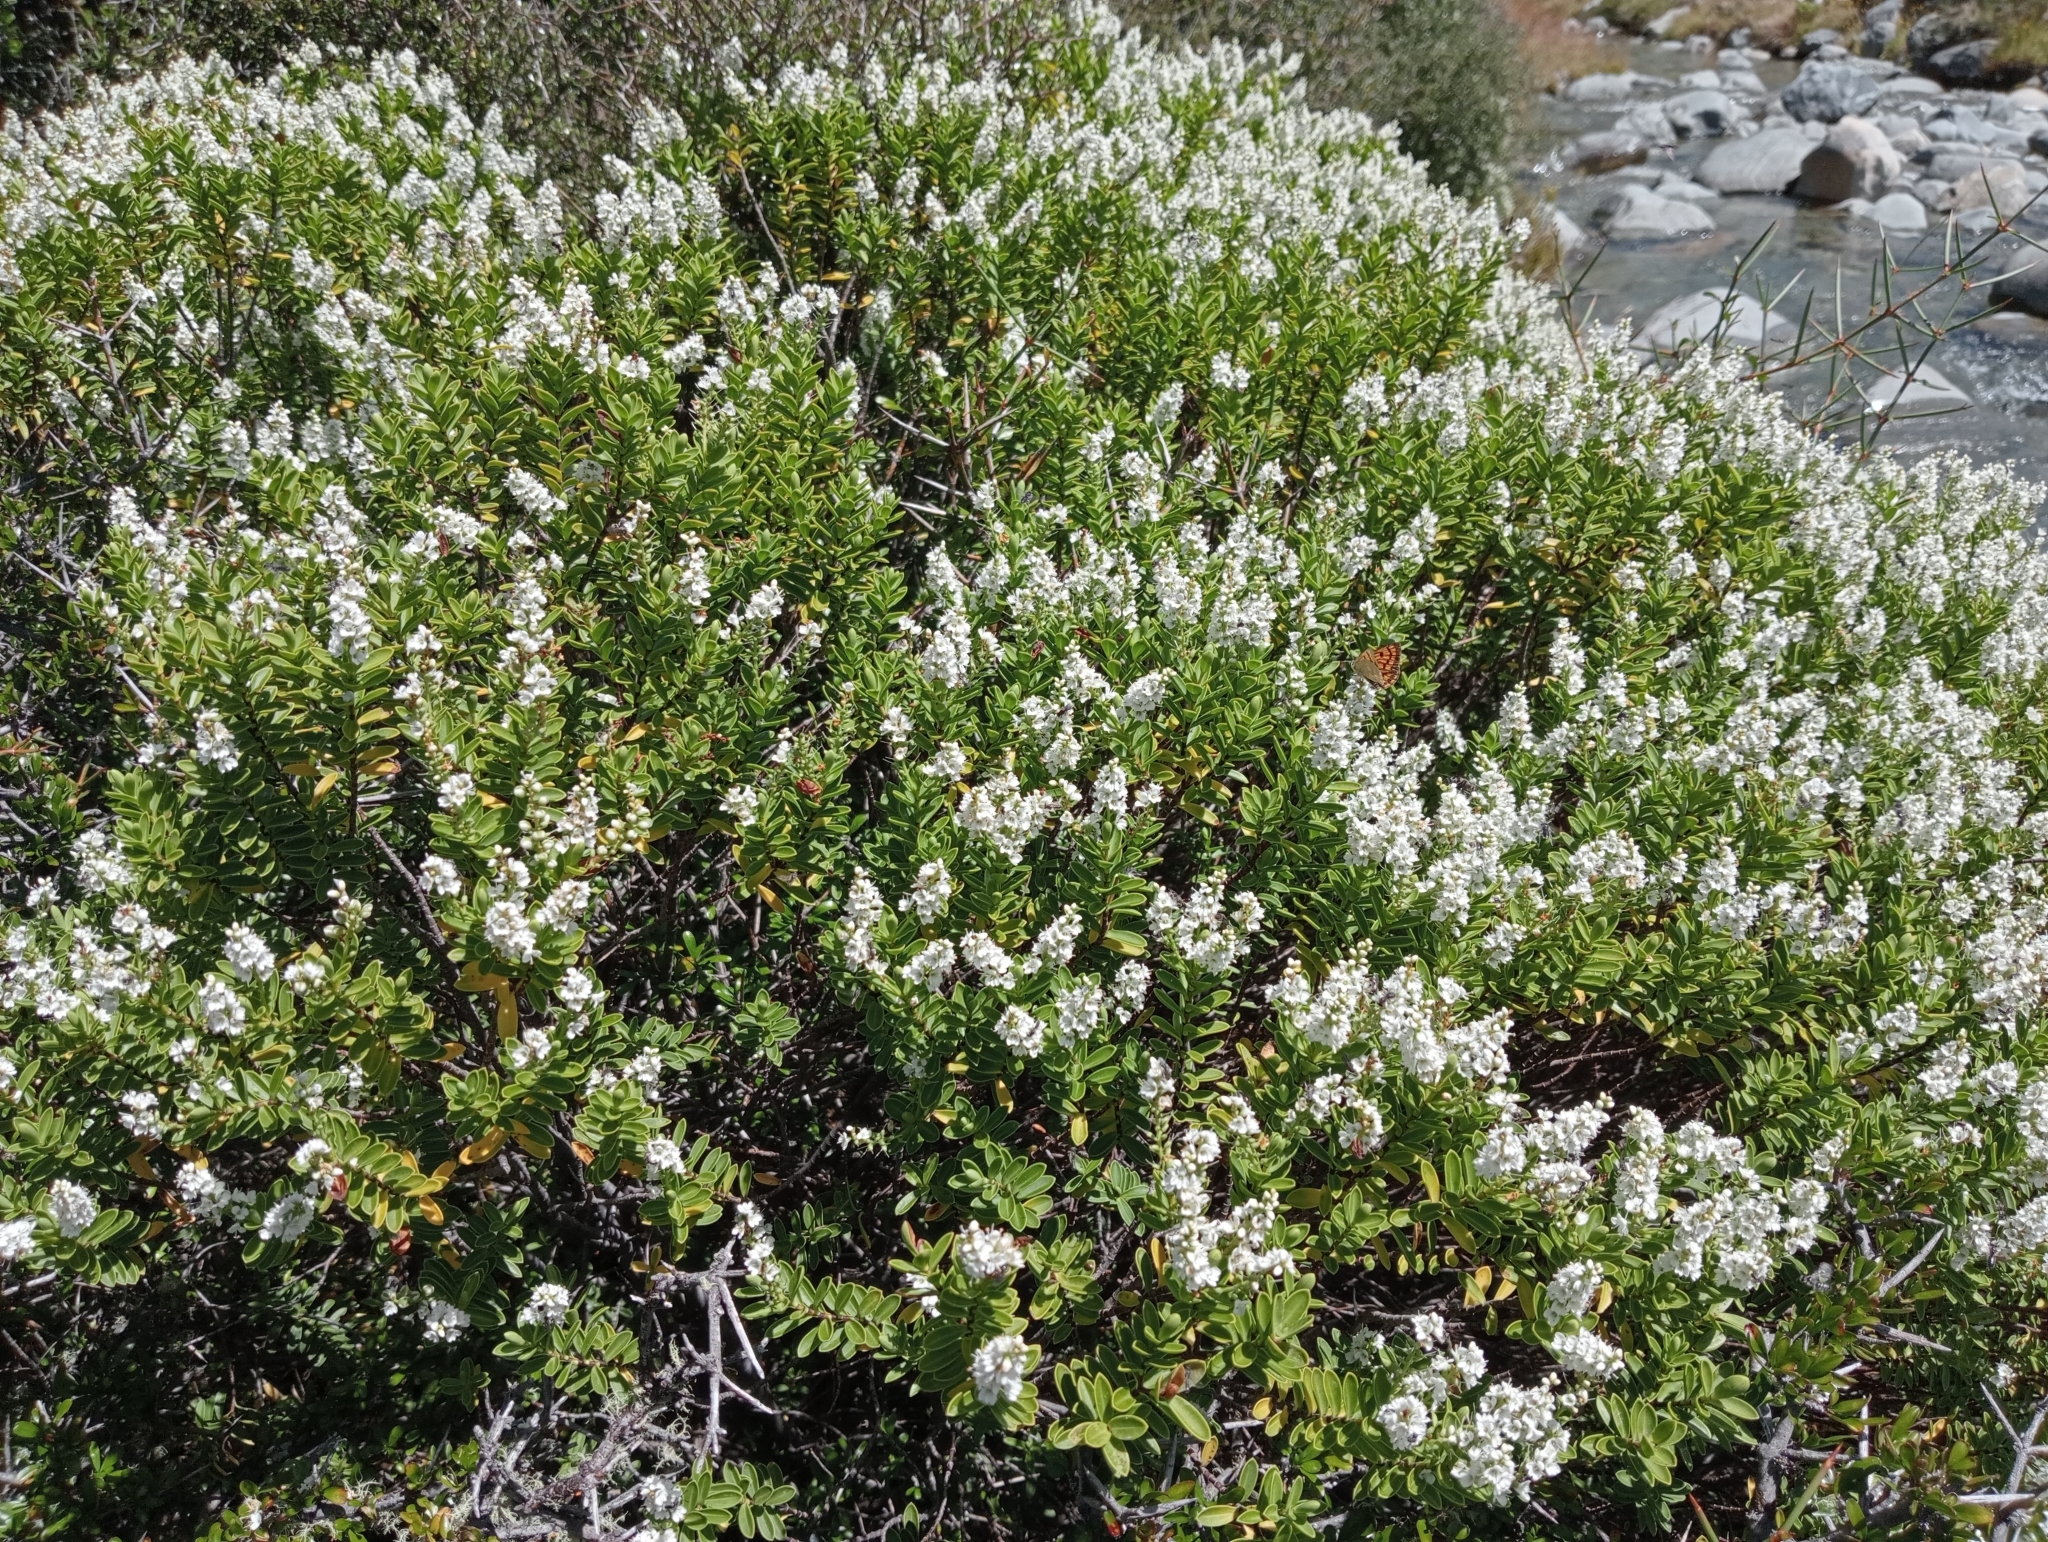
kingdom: Plantae
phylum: Tracheophyta
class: Magnoliopsida
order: Lamiales
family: Plantaginaceae
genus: Veronica
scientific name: Veronica rakaiensis
